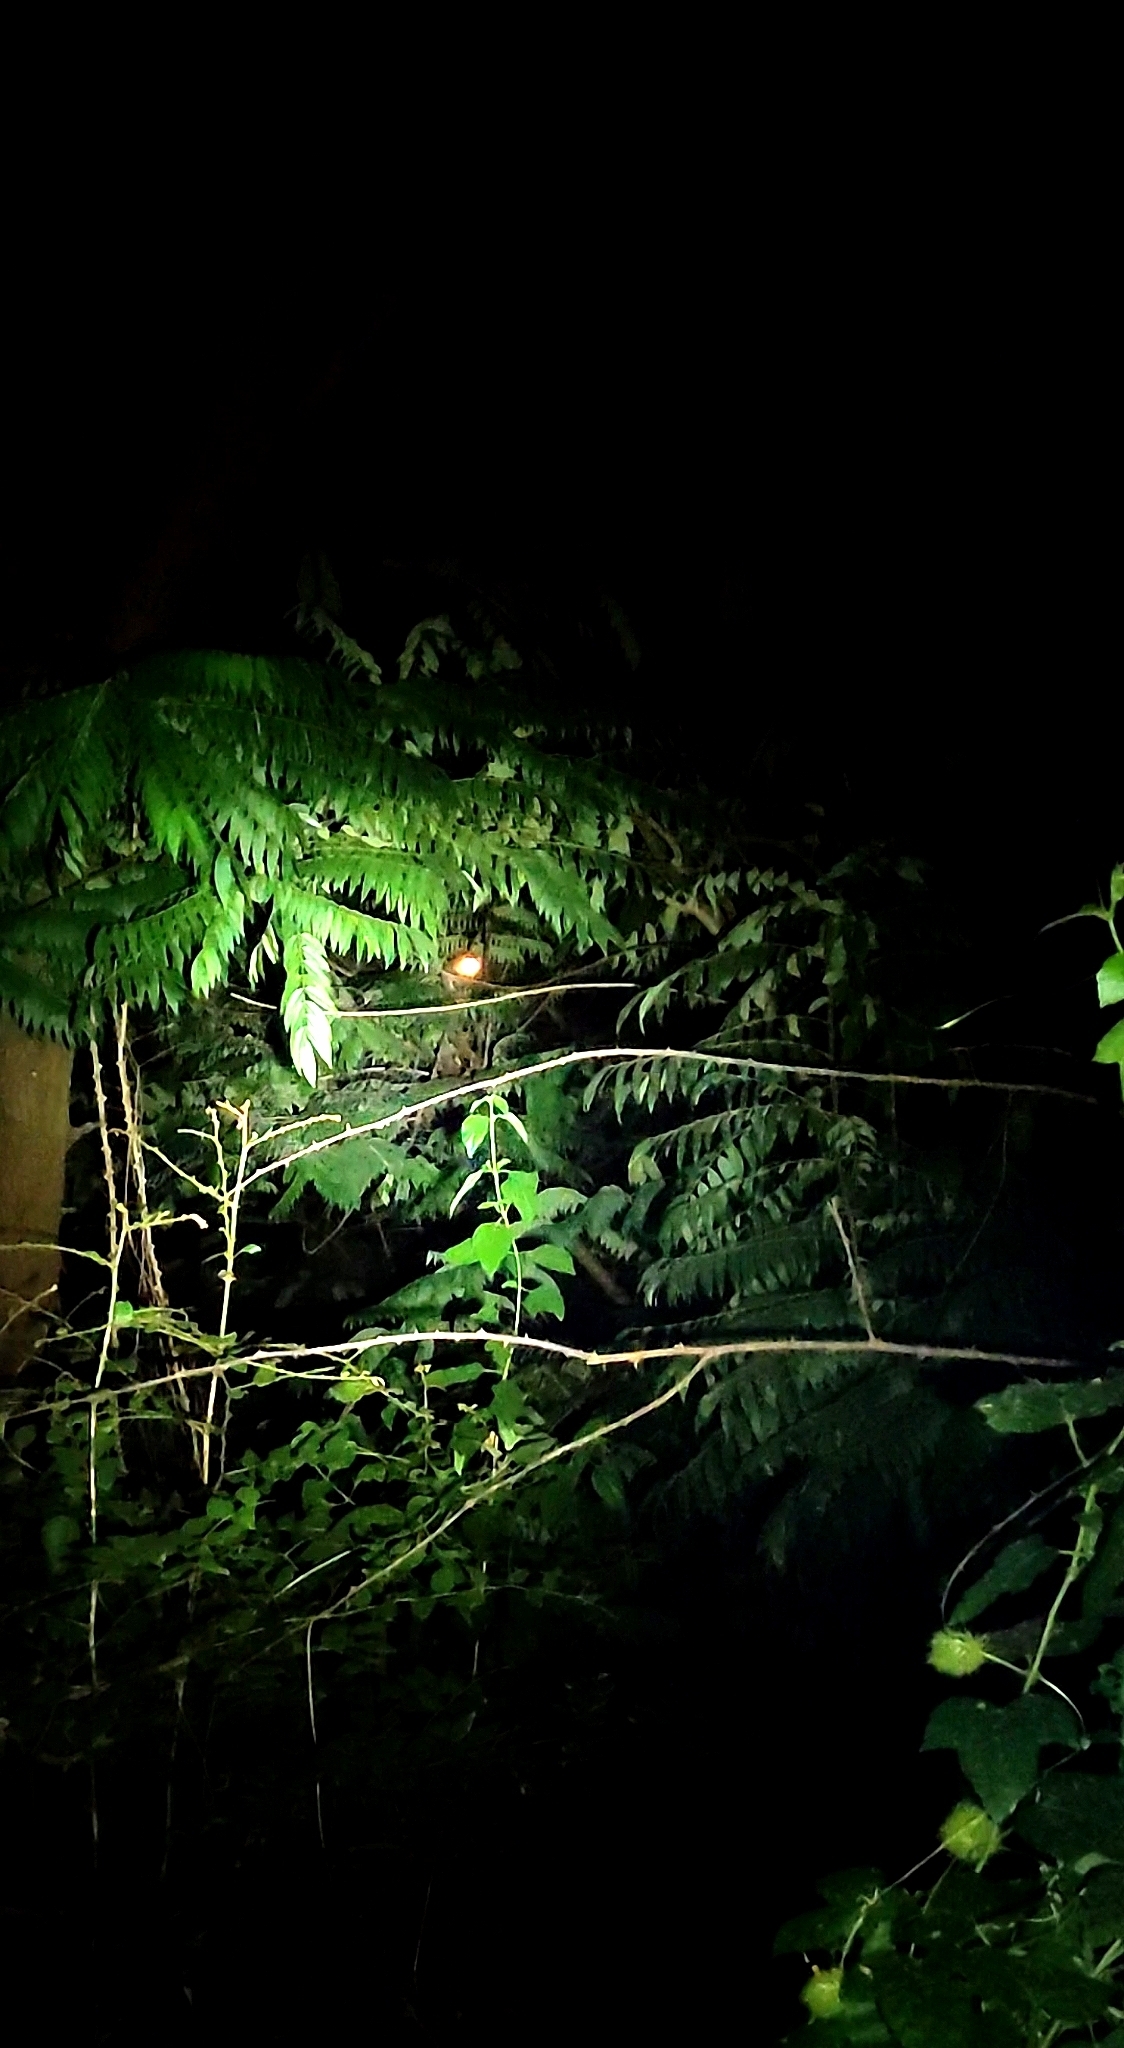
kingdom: Animalia
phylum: Chordata
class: Mammalia
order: Primates
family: Lorisidae
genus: Loris
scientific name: Loris lydekkerianus
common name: Gray slender loris
